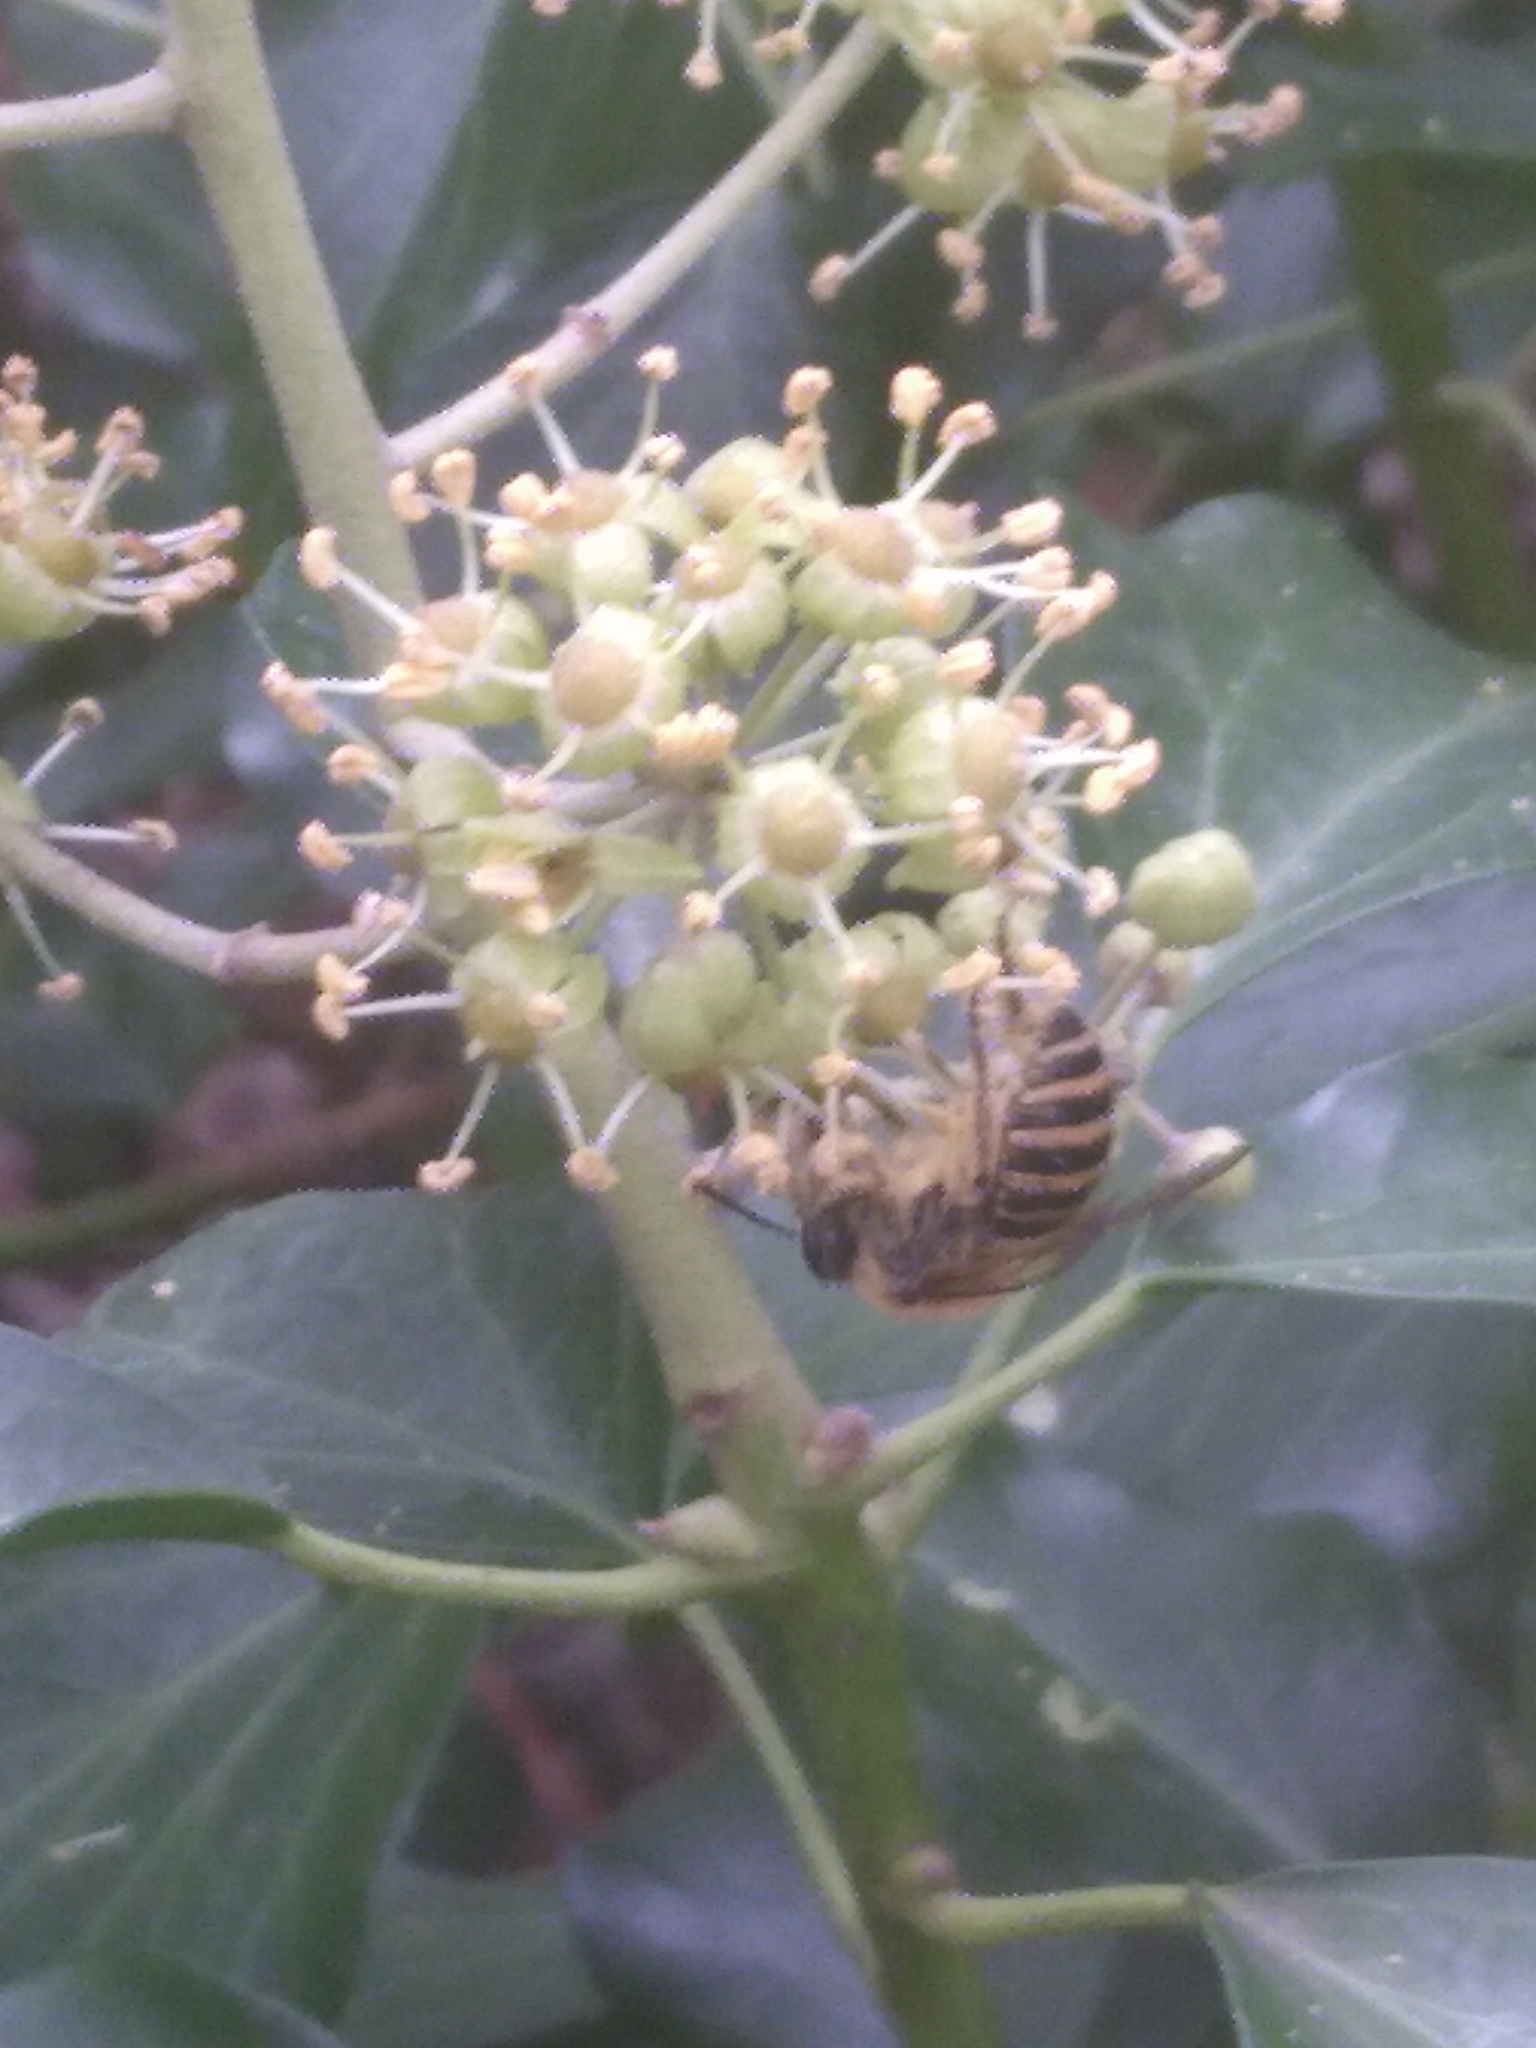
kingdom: Animalia
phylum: Arthropoda
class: Insecta
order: Hymenoptera
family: Colletidae
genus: Colletes
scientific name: Colletes hederae
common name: Ivy bee
